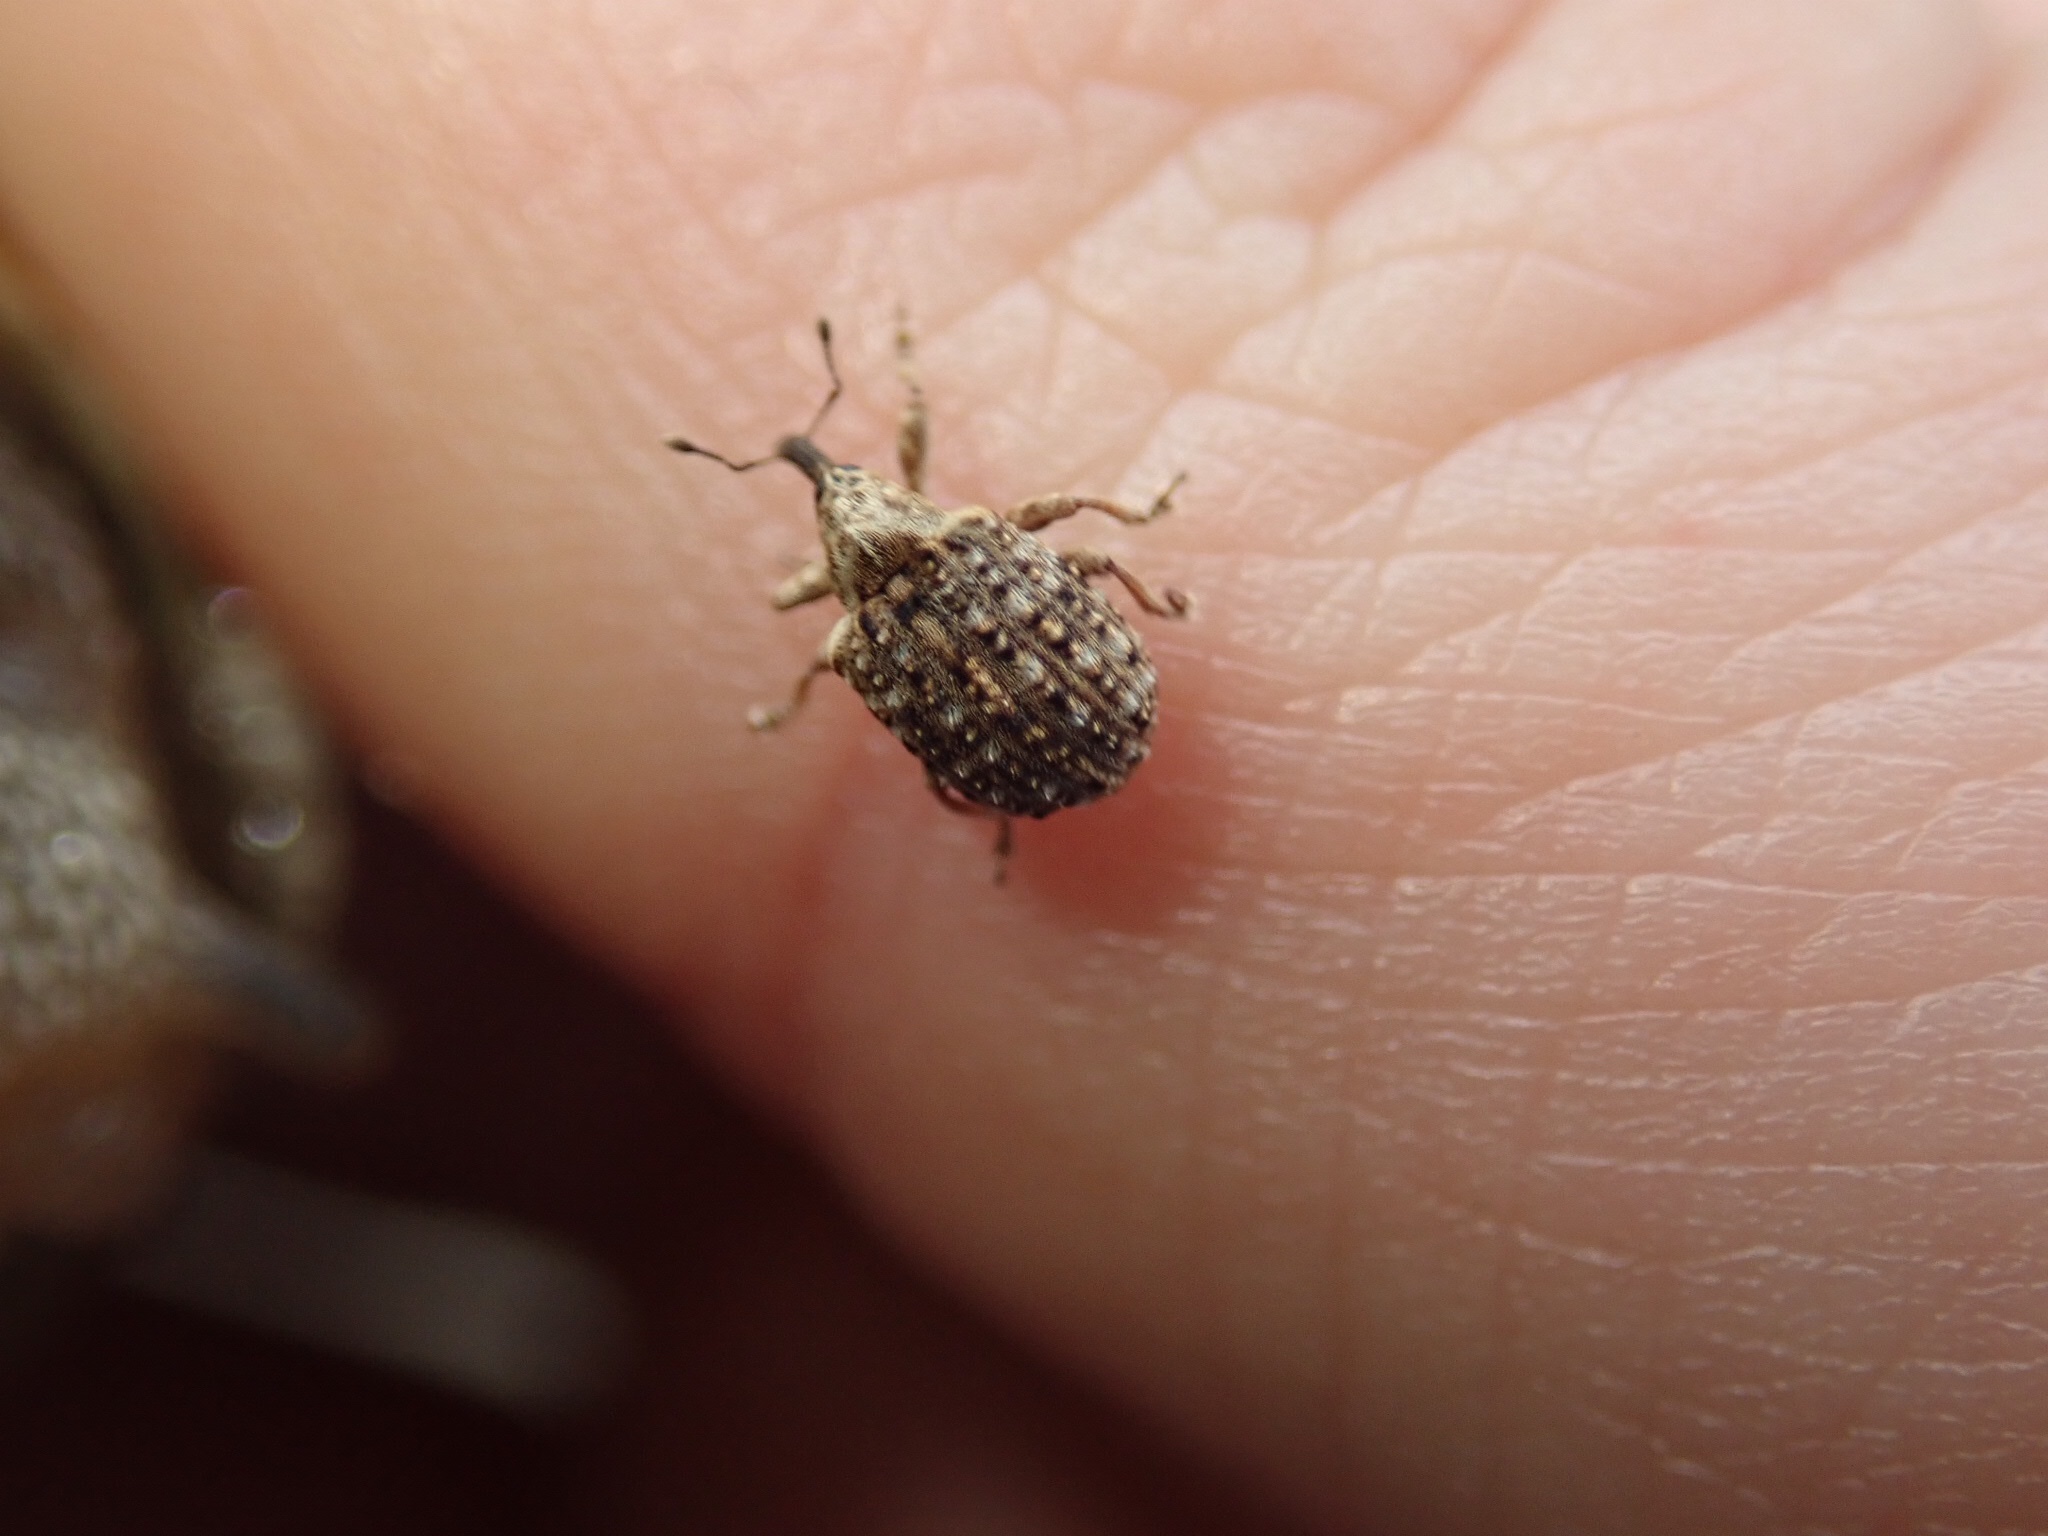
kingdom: Animalia
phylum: Arthropoda
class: Insecta
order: Coleoptera
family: Curculionidae
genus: Cleopus
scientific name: Cleopus japonicus
